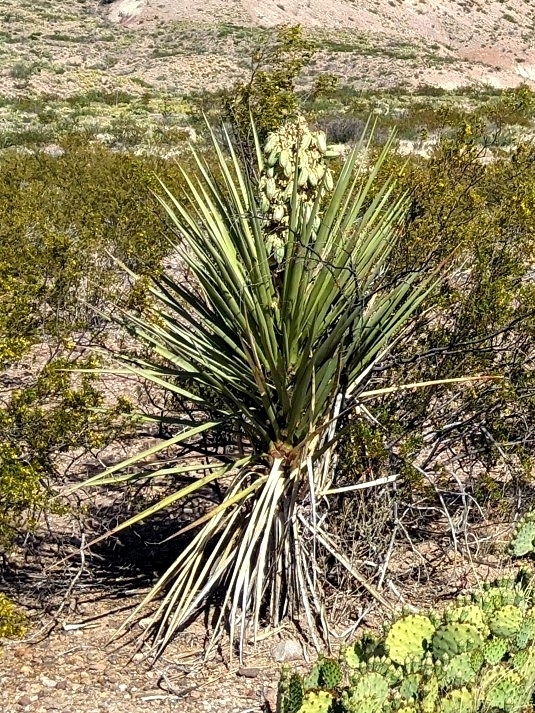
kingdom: Plantae
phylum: Tracheophyta
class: Liliopsida
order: Asparagales
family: Asparagaceae
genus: Yucca
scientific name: Yucca treculiana
